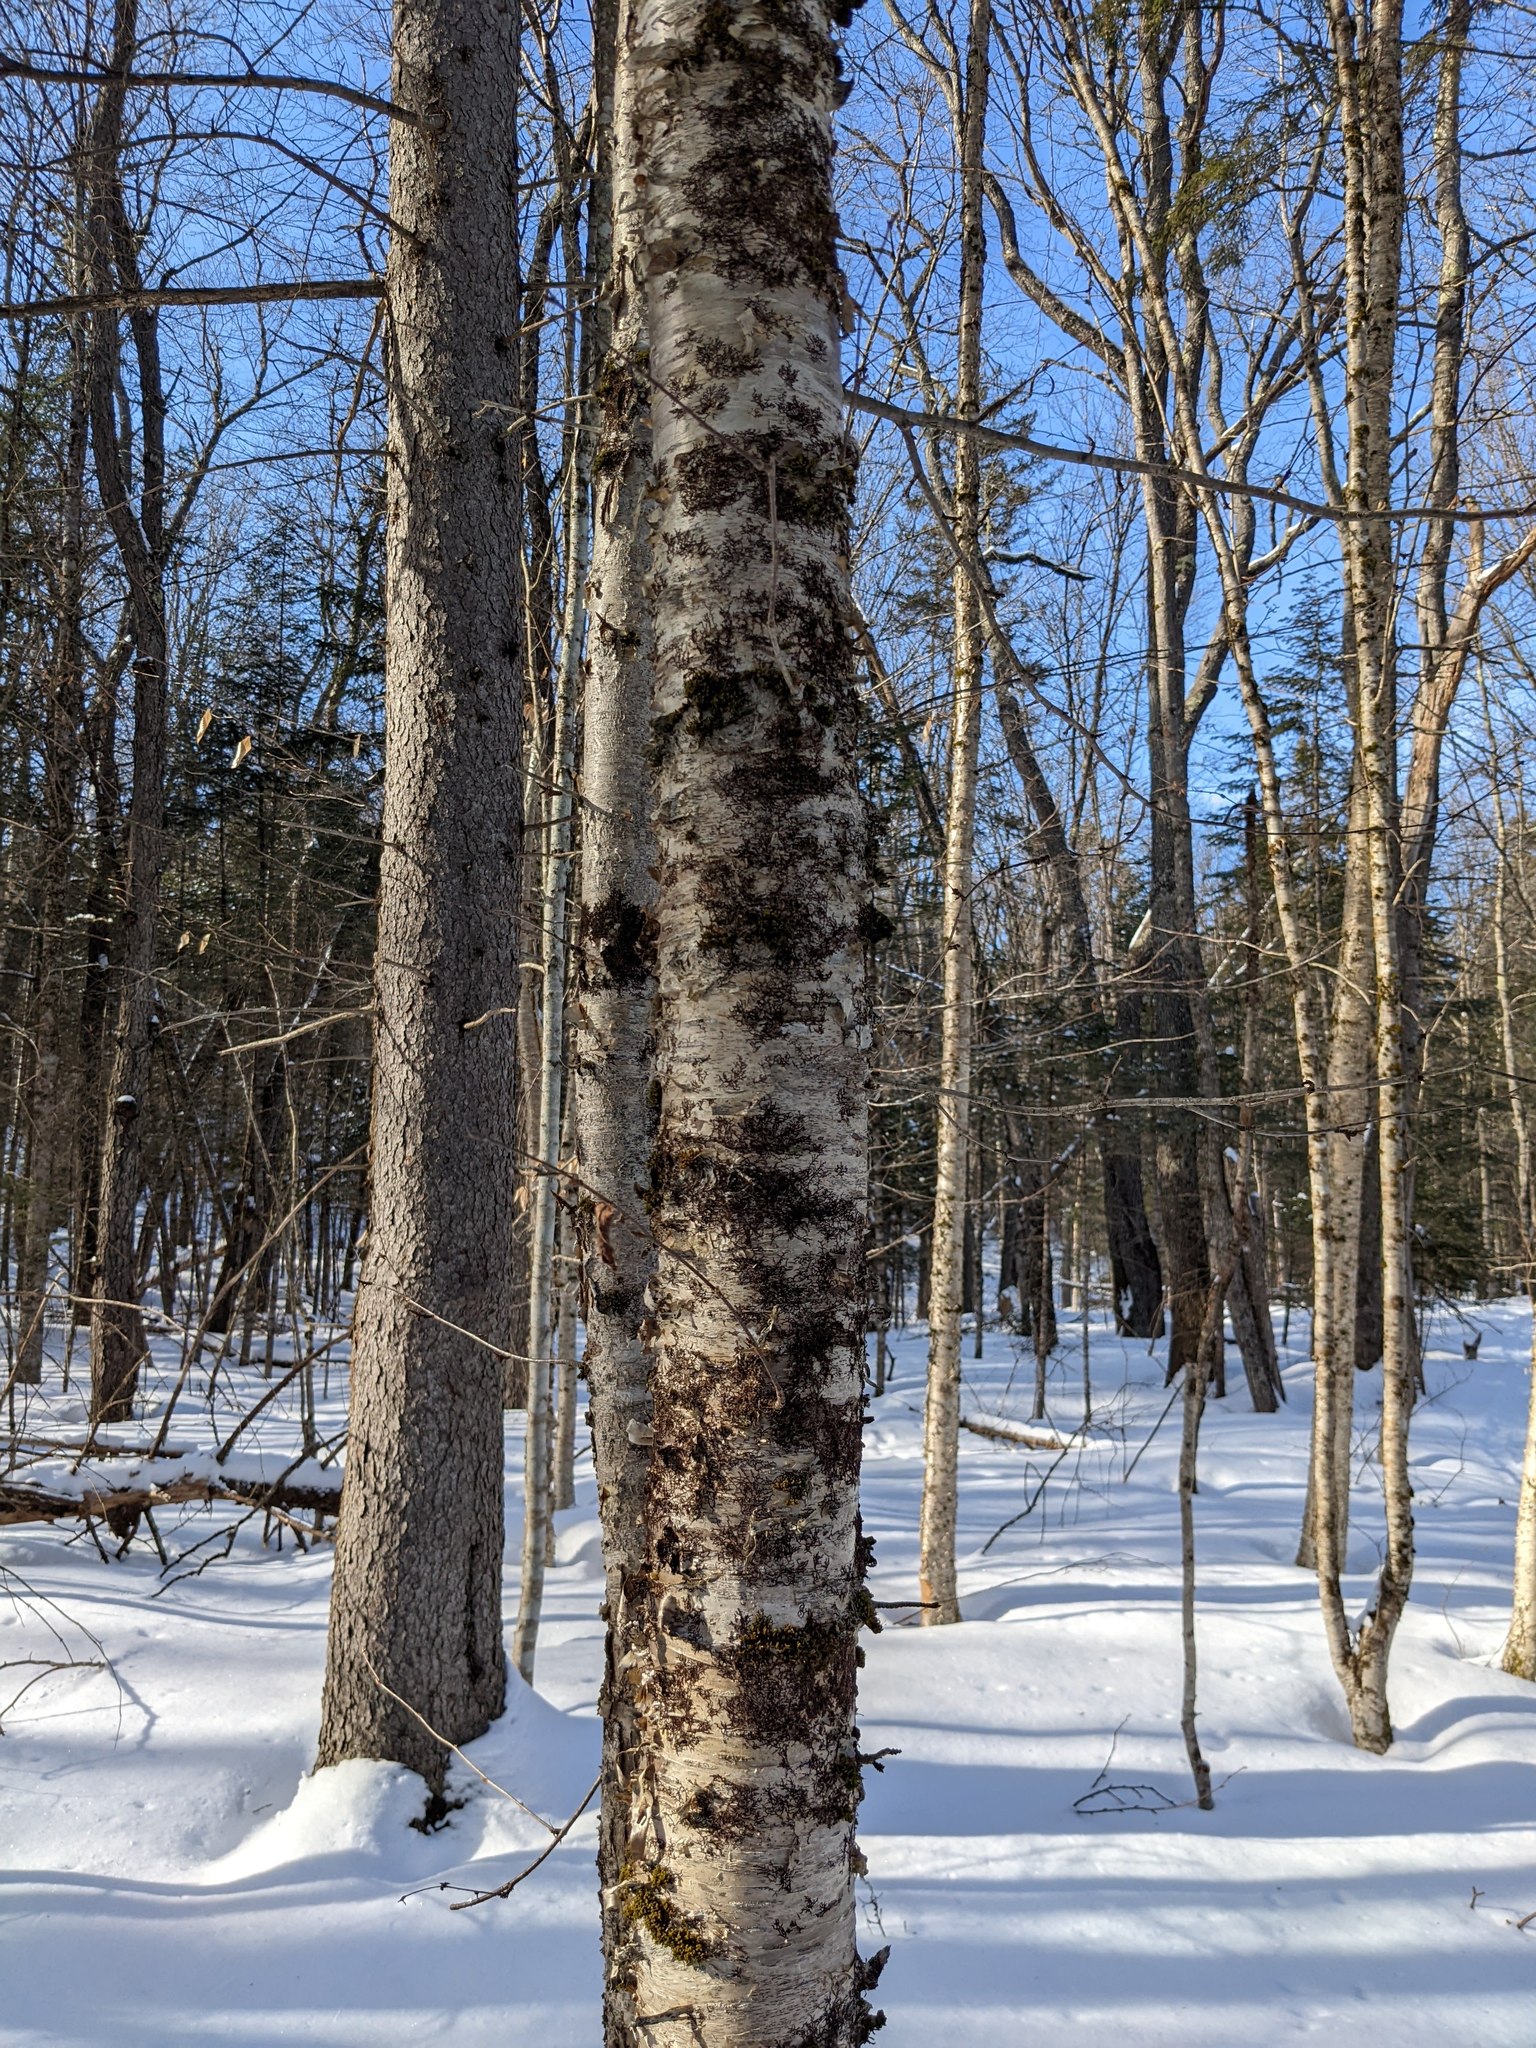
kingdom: Plantae
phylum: Tracheophyta
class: Magnoliopsida
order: Fagales
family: Betulaceae
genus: Betula
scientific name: Betula alleghaniensis
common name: Yellow birch
